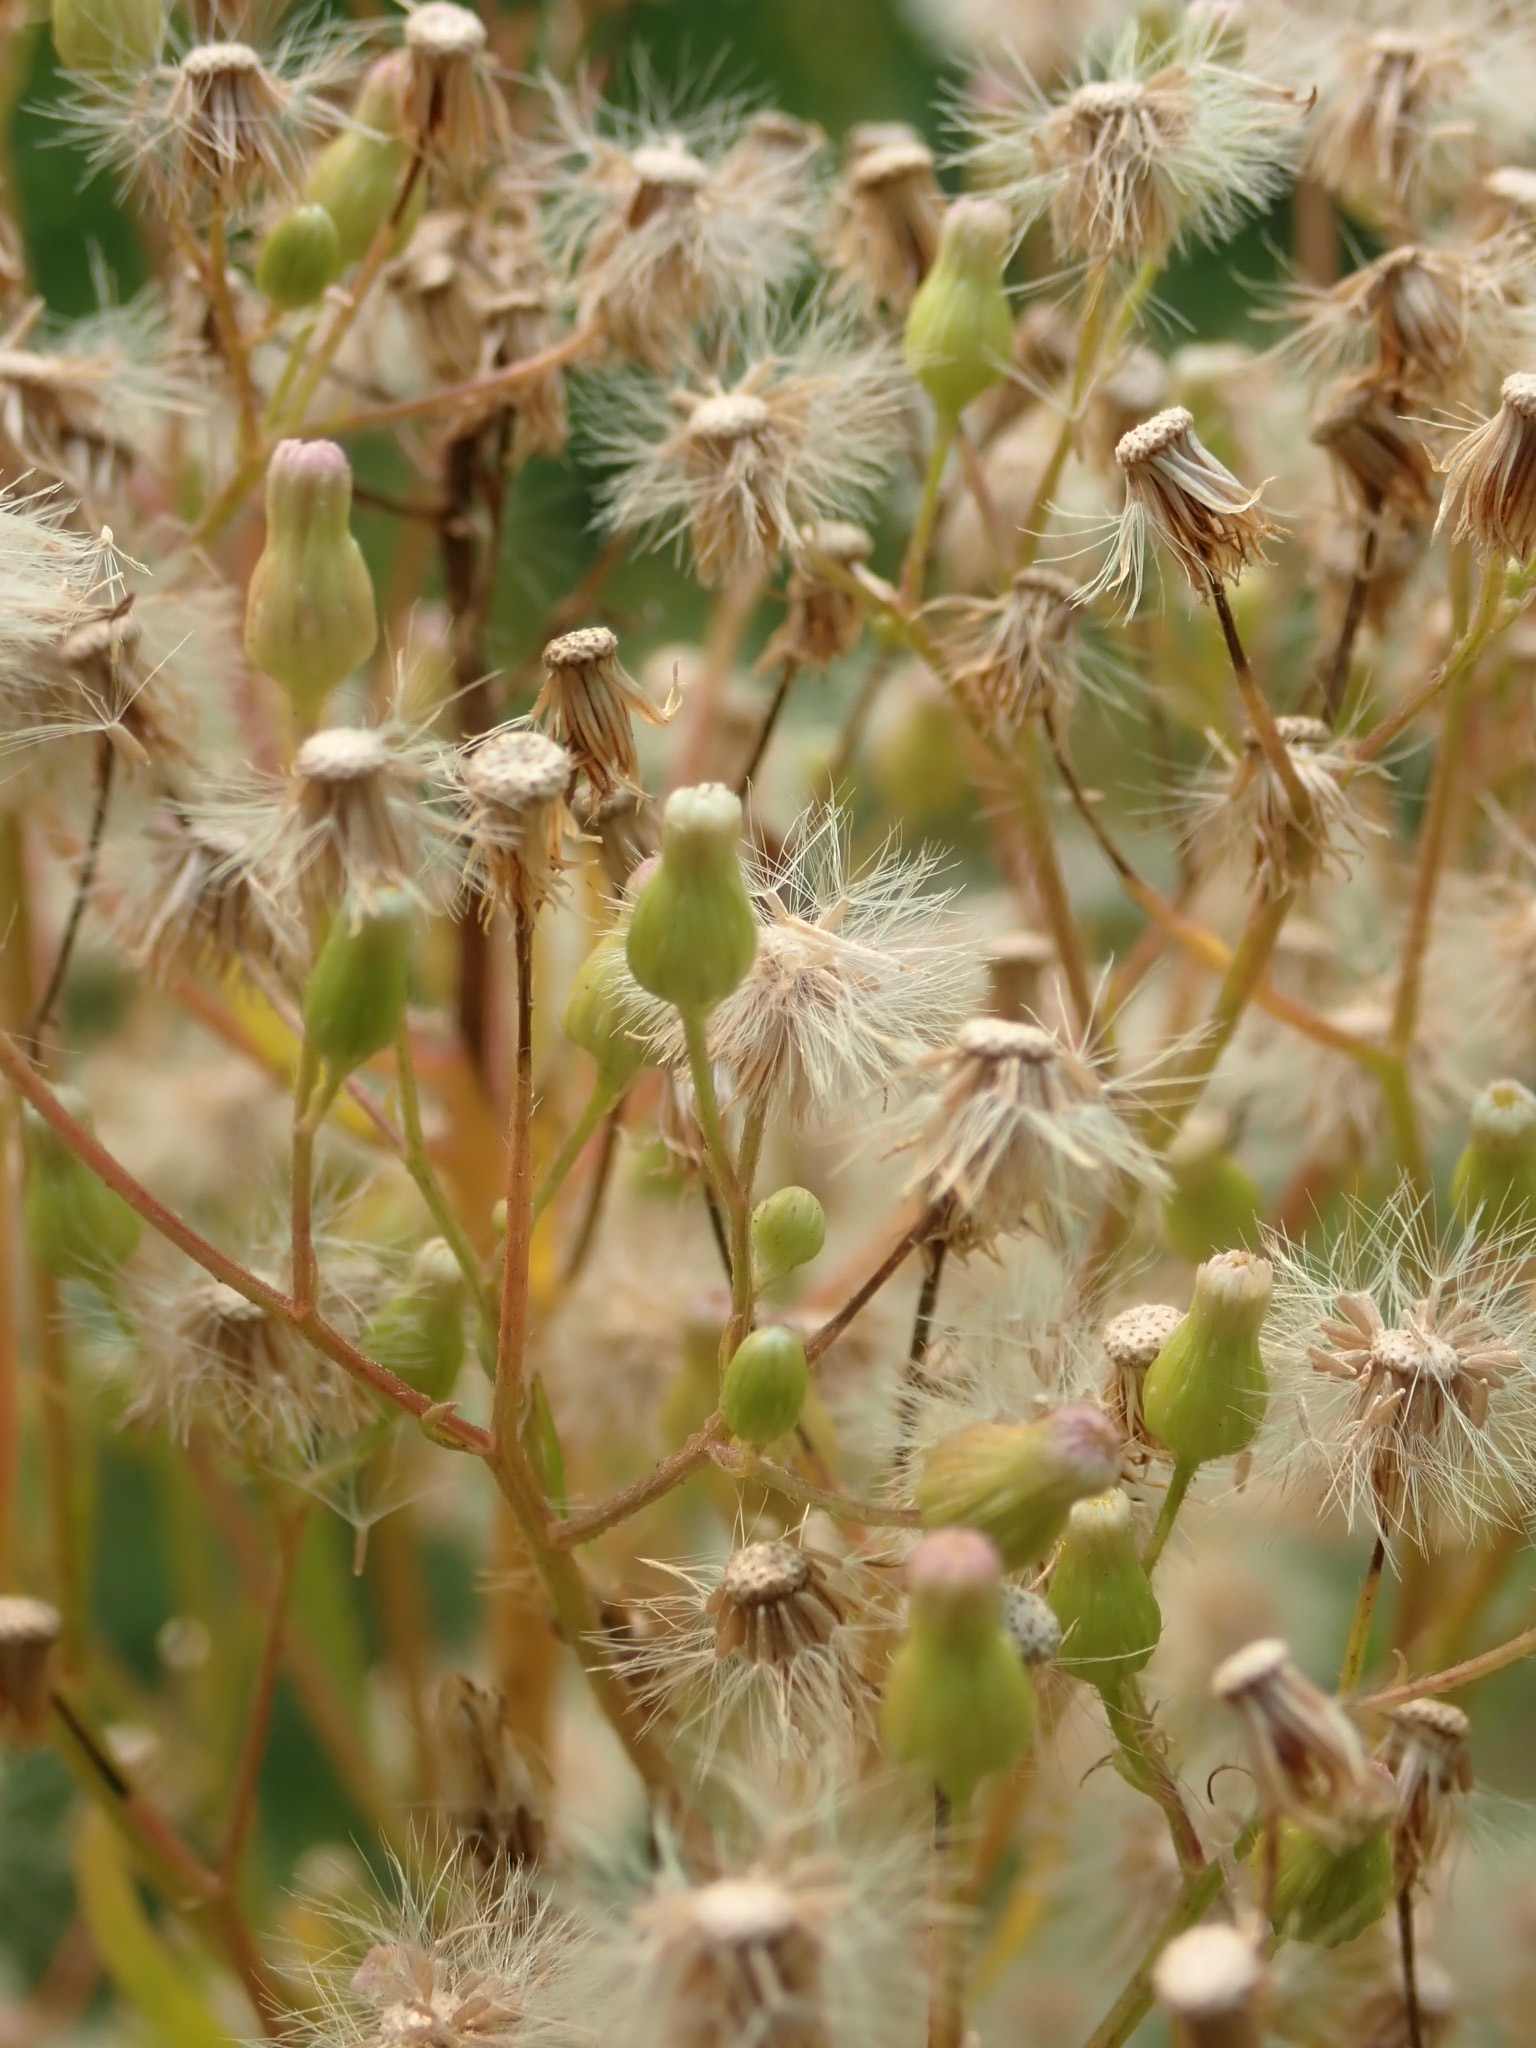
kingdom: Plantae
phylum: Tracheophyta
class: Magnoliopsida
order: Asterales
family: Asteraceae
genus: Erigeron
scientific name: Erigeron canadensis
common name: Canadian fleabane
